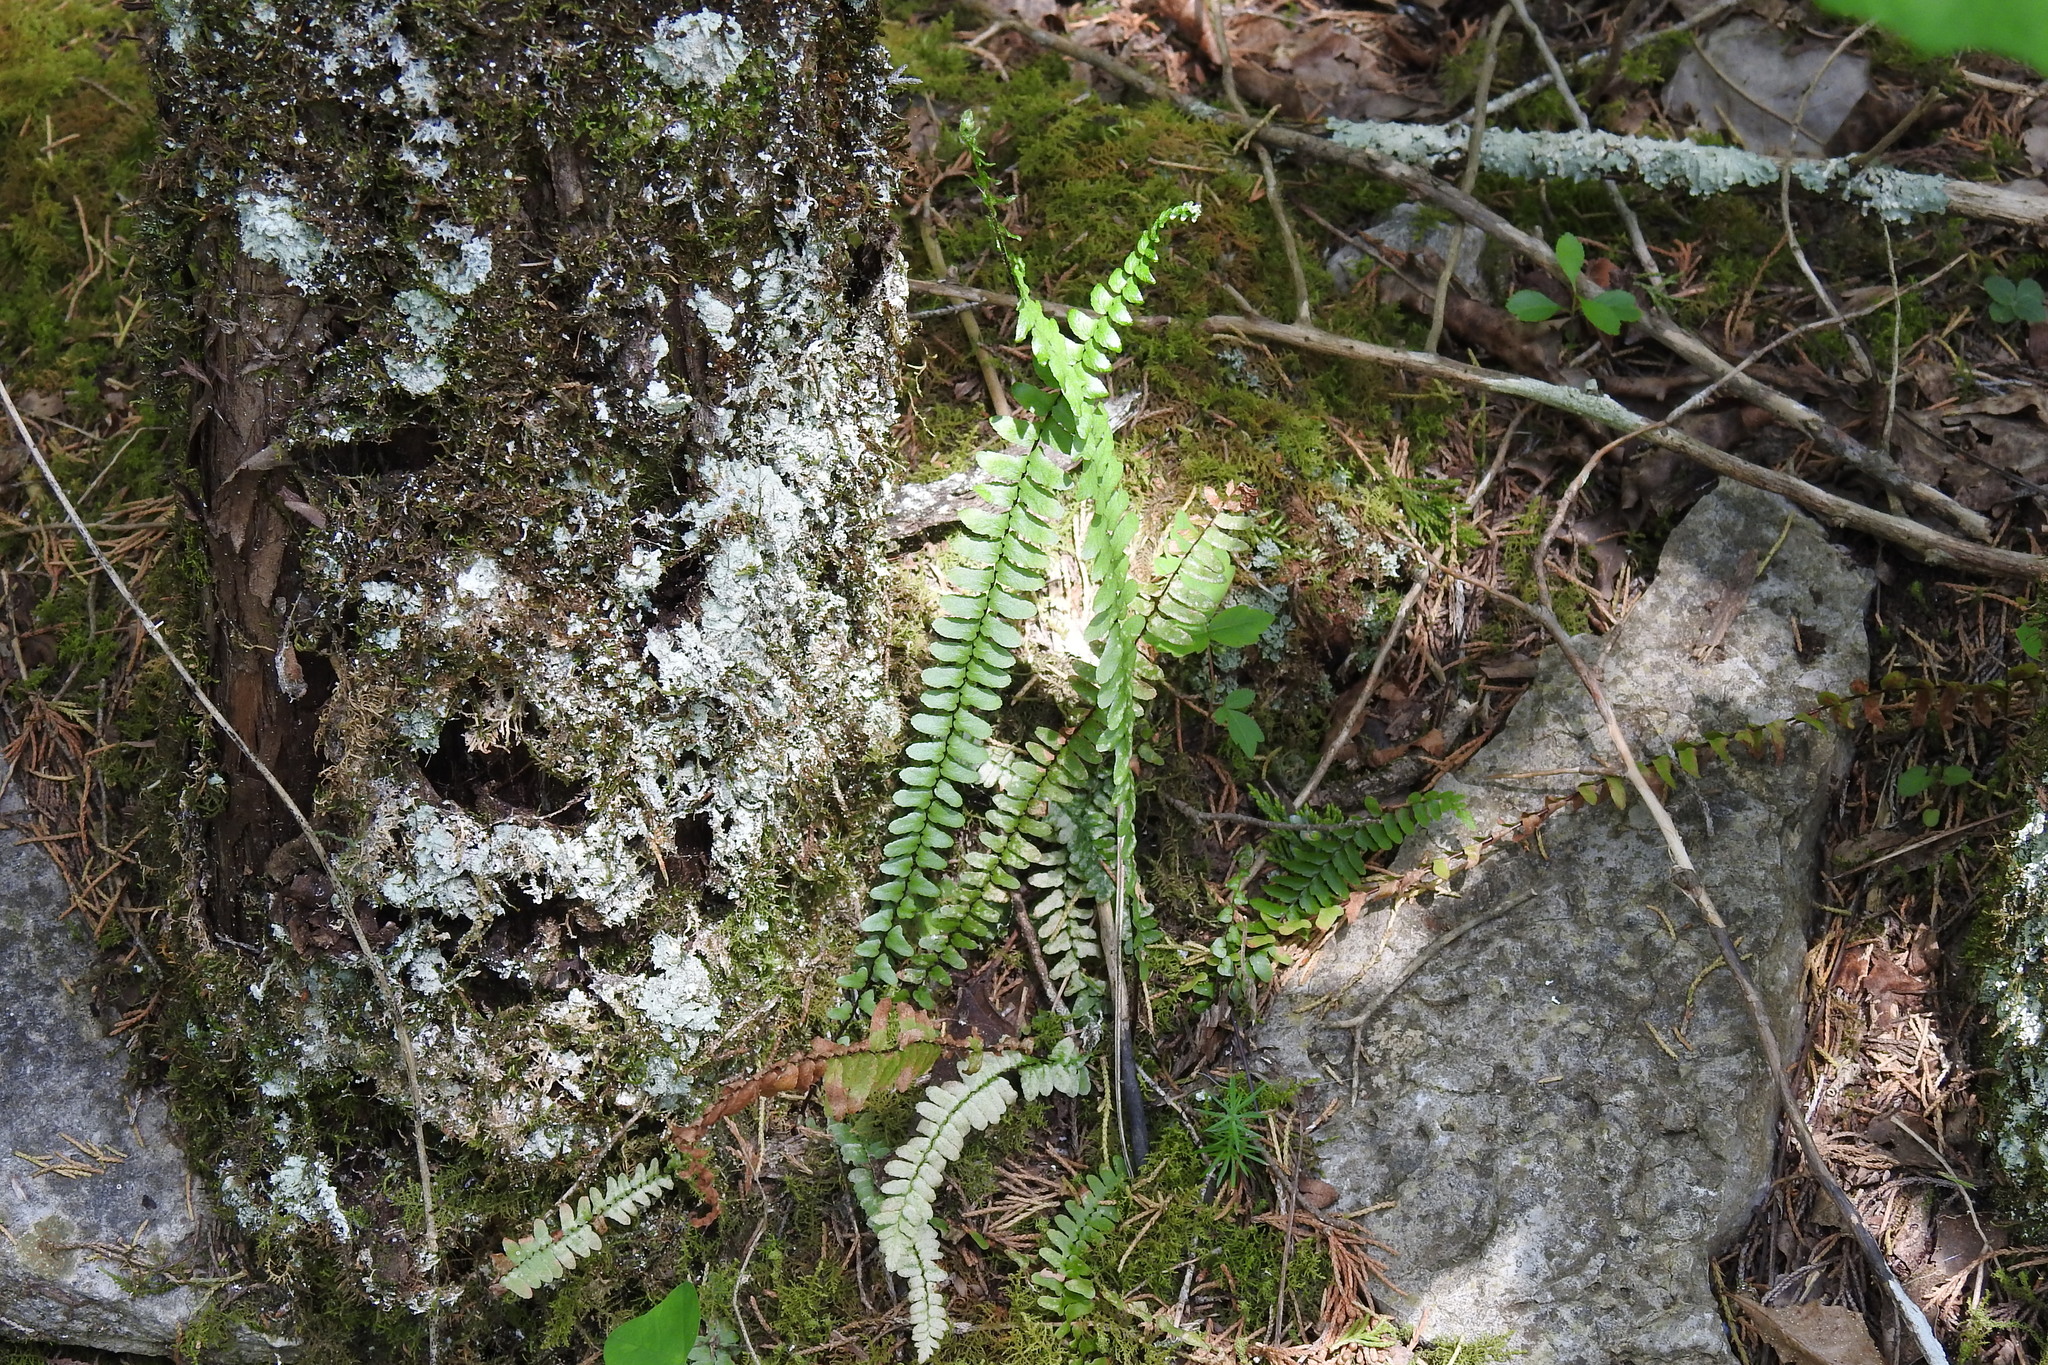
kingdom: Plantae
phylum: Tracheophyta
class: Polypodiopsida
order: Polypodiales
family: Aspleniaceae
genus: Asplenium
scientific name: Asplenium platyneuron
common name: Ebony spleenwort
